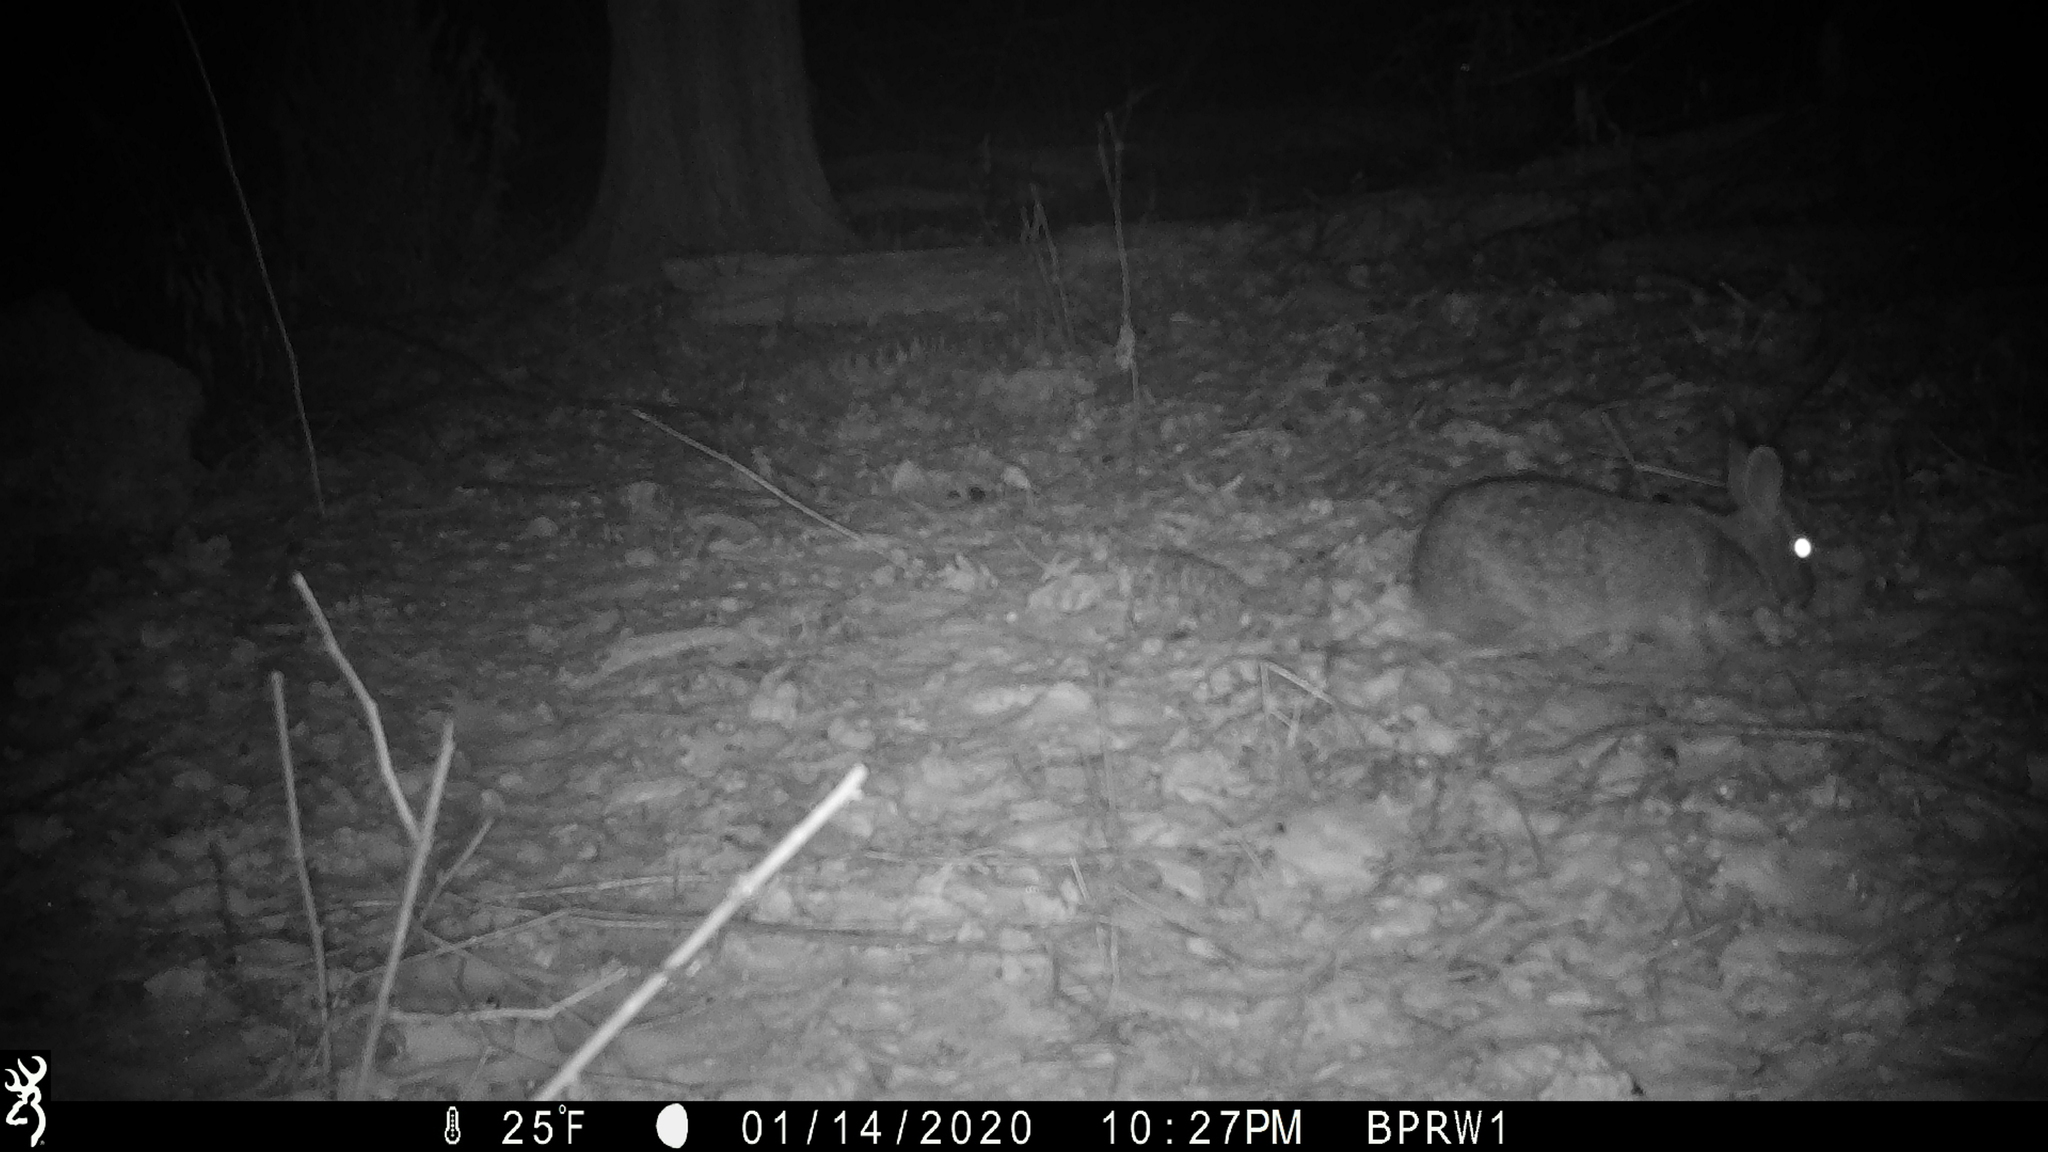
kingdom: Animalia
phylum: Chordata
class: Mammalia
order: Lagomorpha
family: Leporidae
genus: Sylvilagus
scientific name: Sylvilagus floridanus
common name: Eastern cottontail
